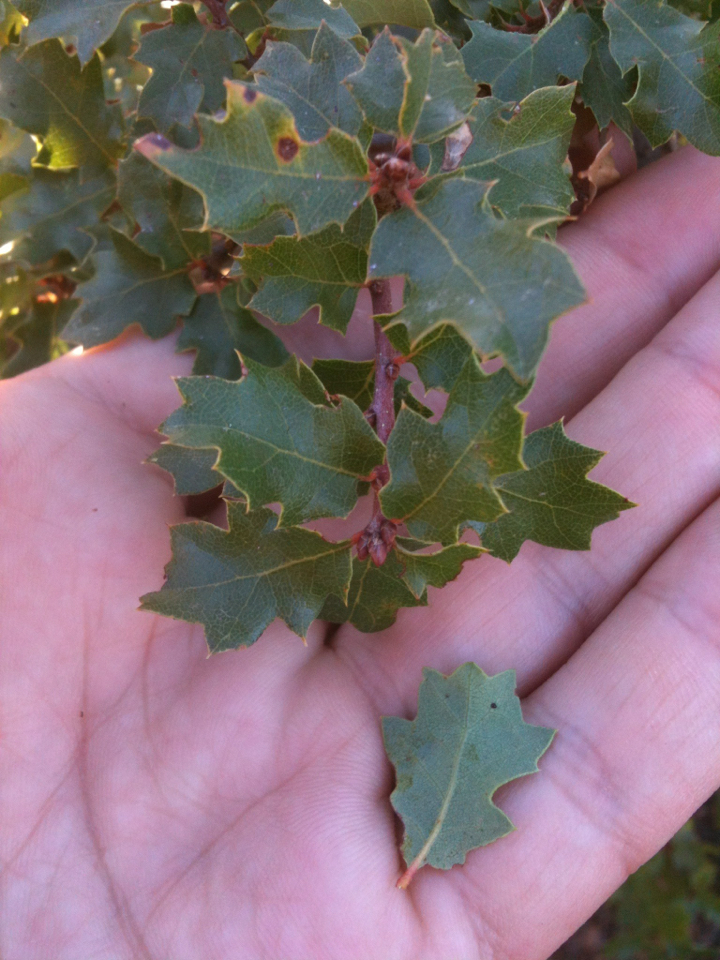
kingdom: Plantae
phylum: Tracheophyta
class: Magnoliopsida
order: Fagales
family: Fagaceae
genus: Quercus
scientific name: Quercus berberidifolia
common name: California scrub oak
